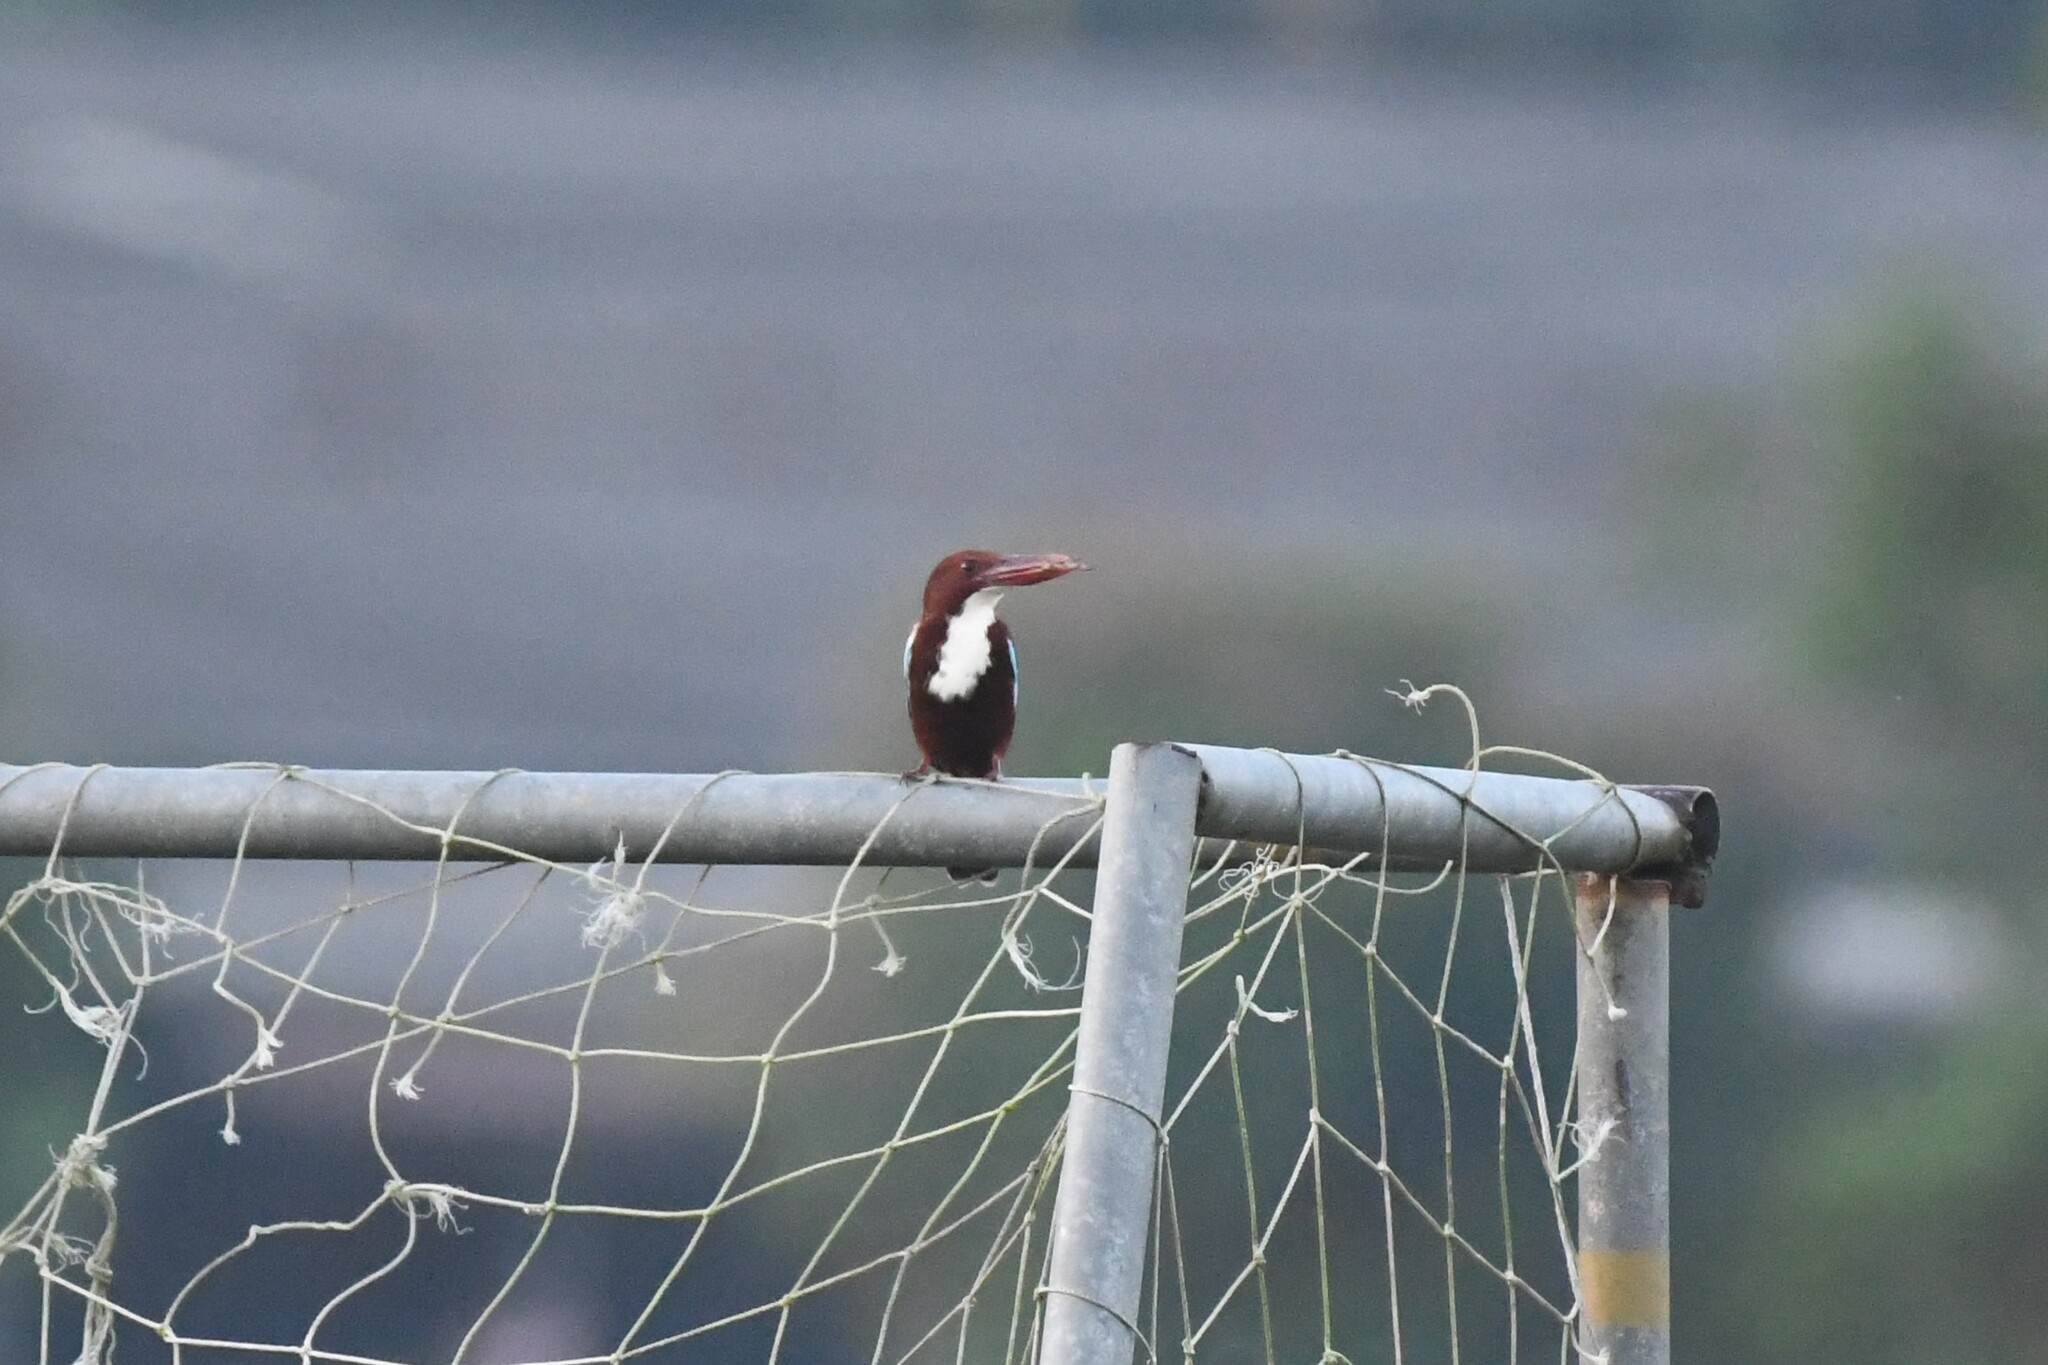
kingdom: Animalia
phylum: Chordata
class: Aves
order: Coraciiformes
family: Alcedinidae
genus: Halcyon
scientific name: Halcyon smyrnensis
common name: White-throated kingfisher
